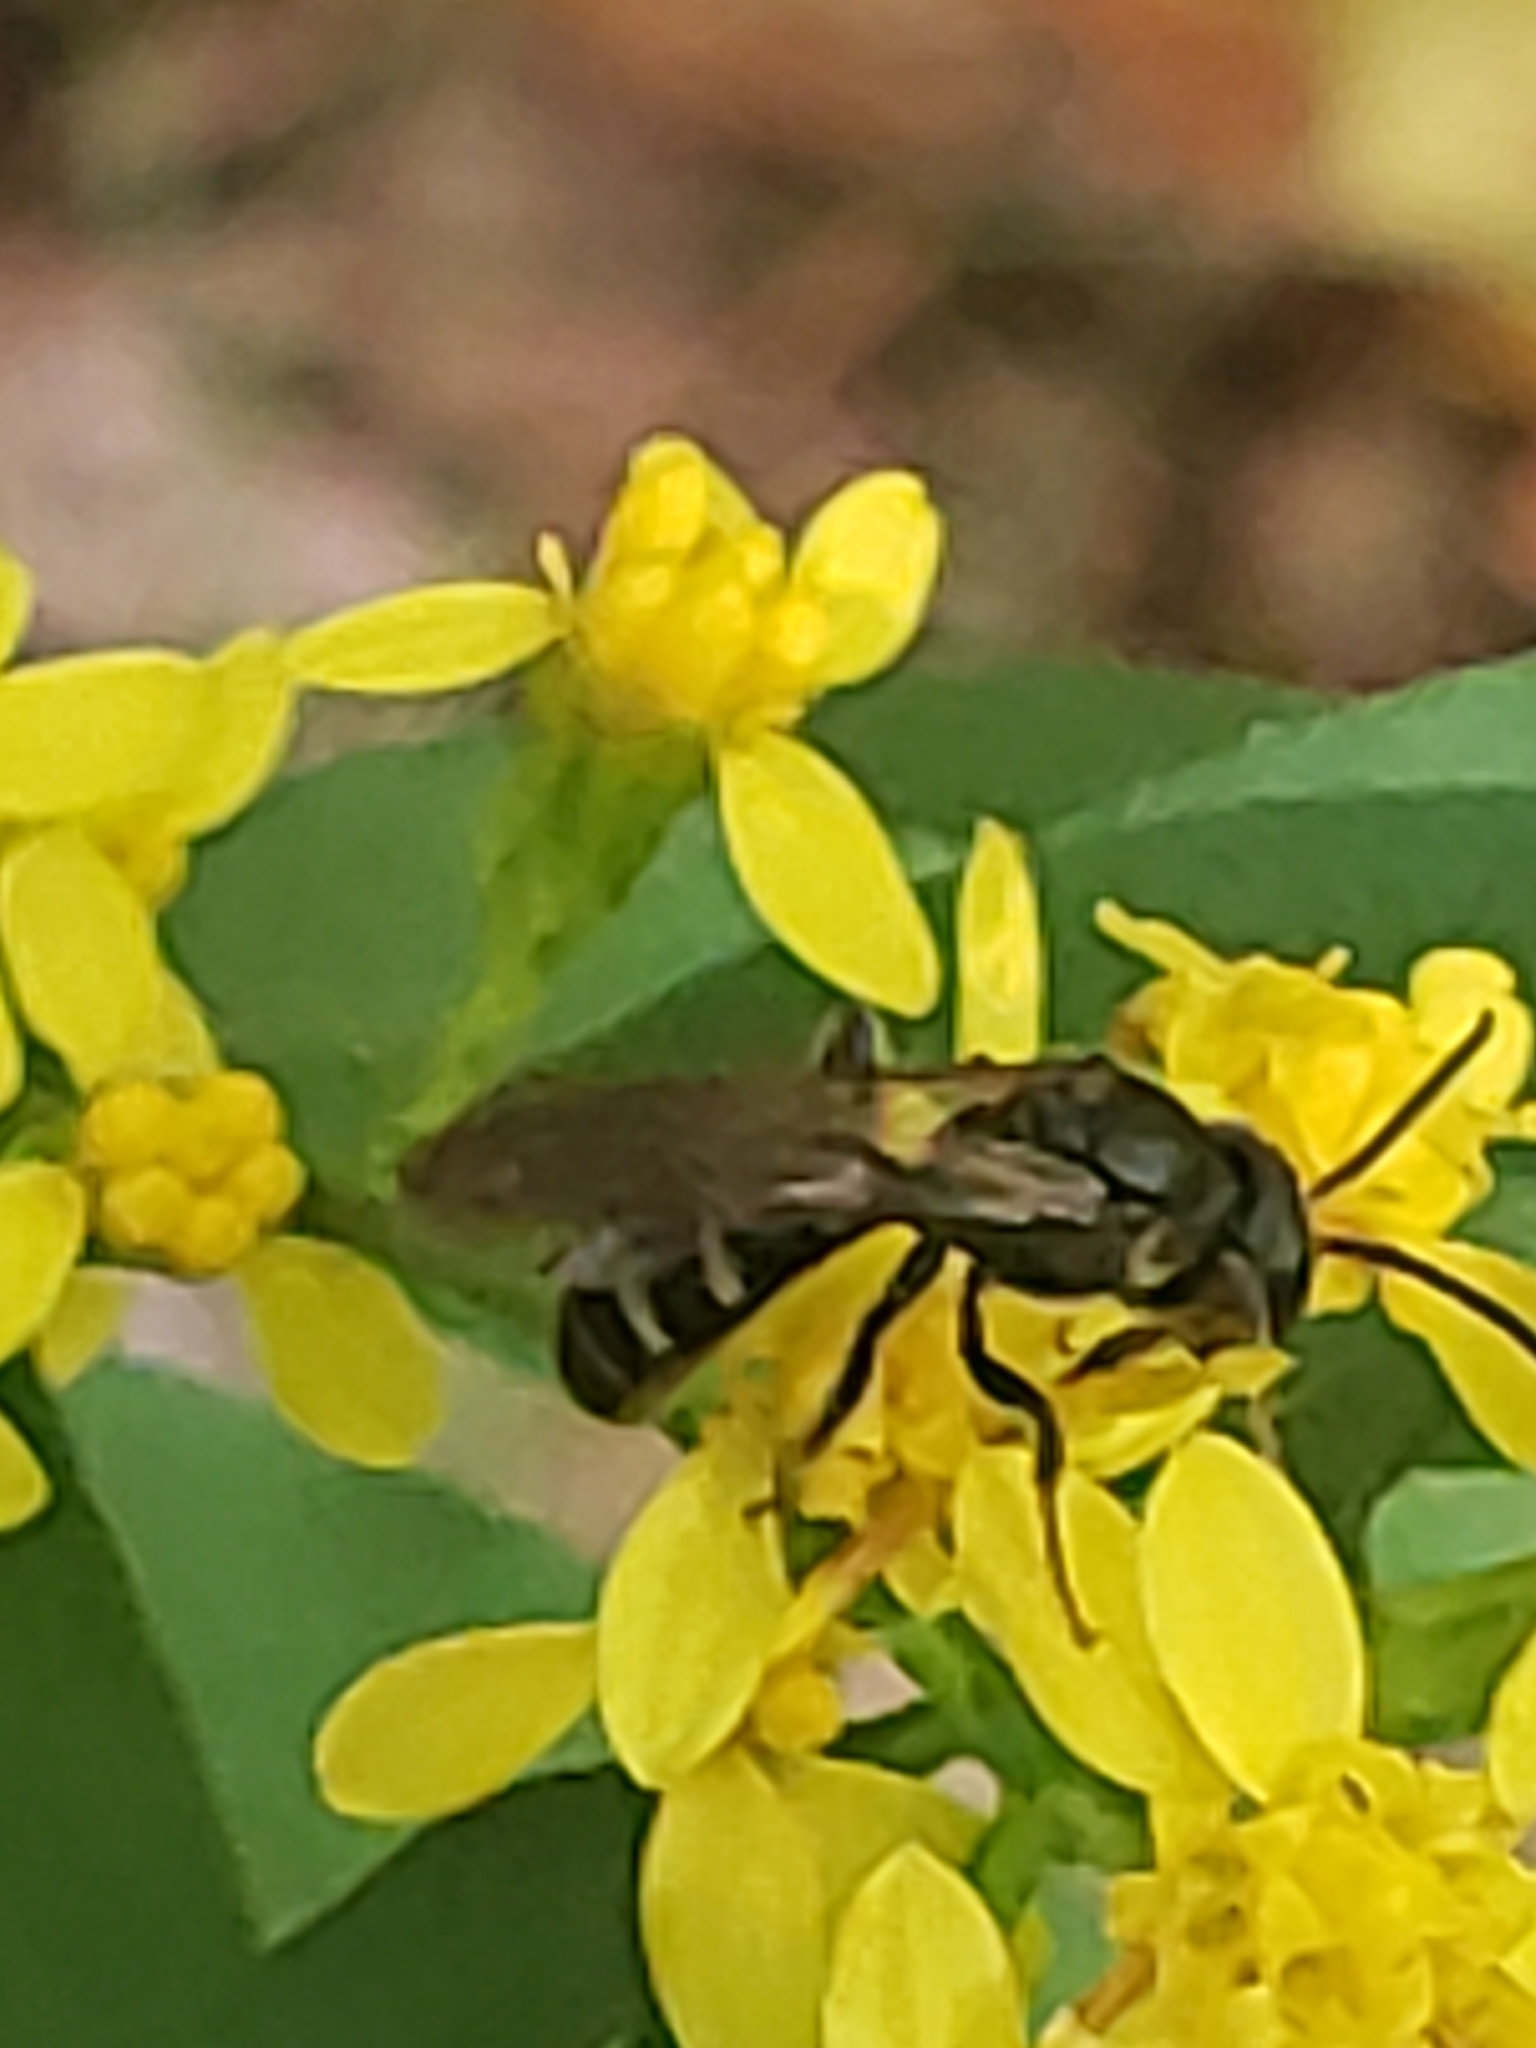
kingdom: Animalia
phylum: Arthropoda
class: Insecta
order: Hymenoptera
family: Halictidae
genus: Lasioglossum
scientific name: Lasioglossum fuscipenne
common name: Brown-winged sweat bee
